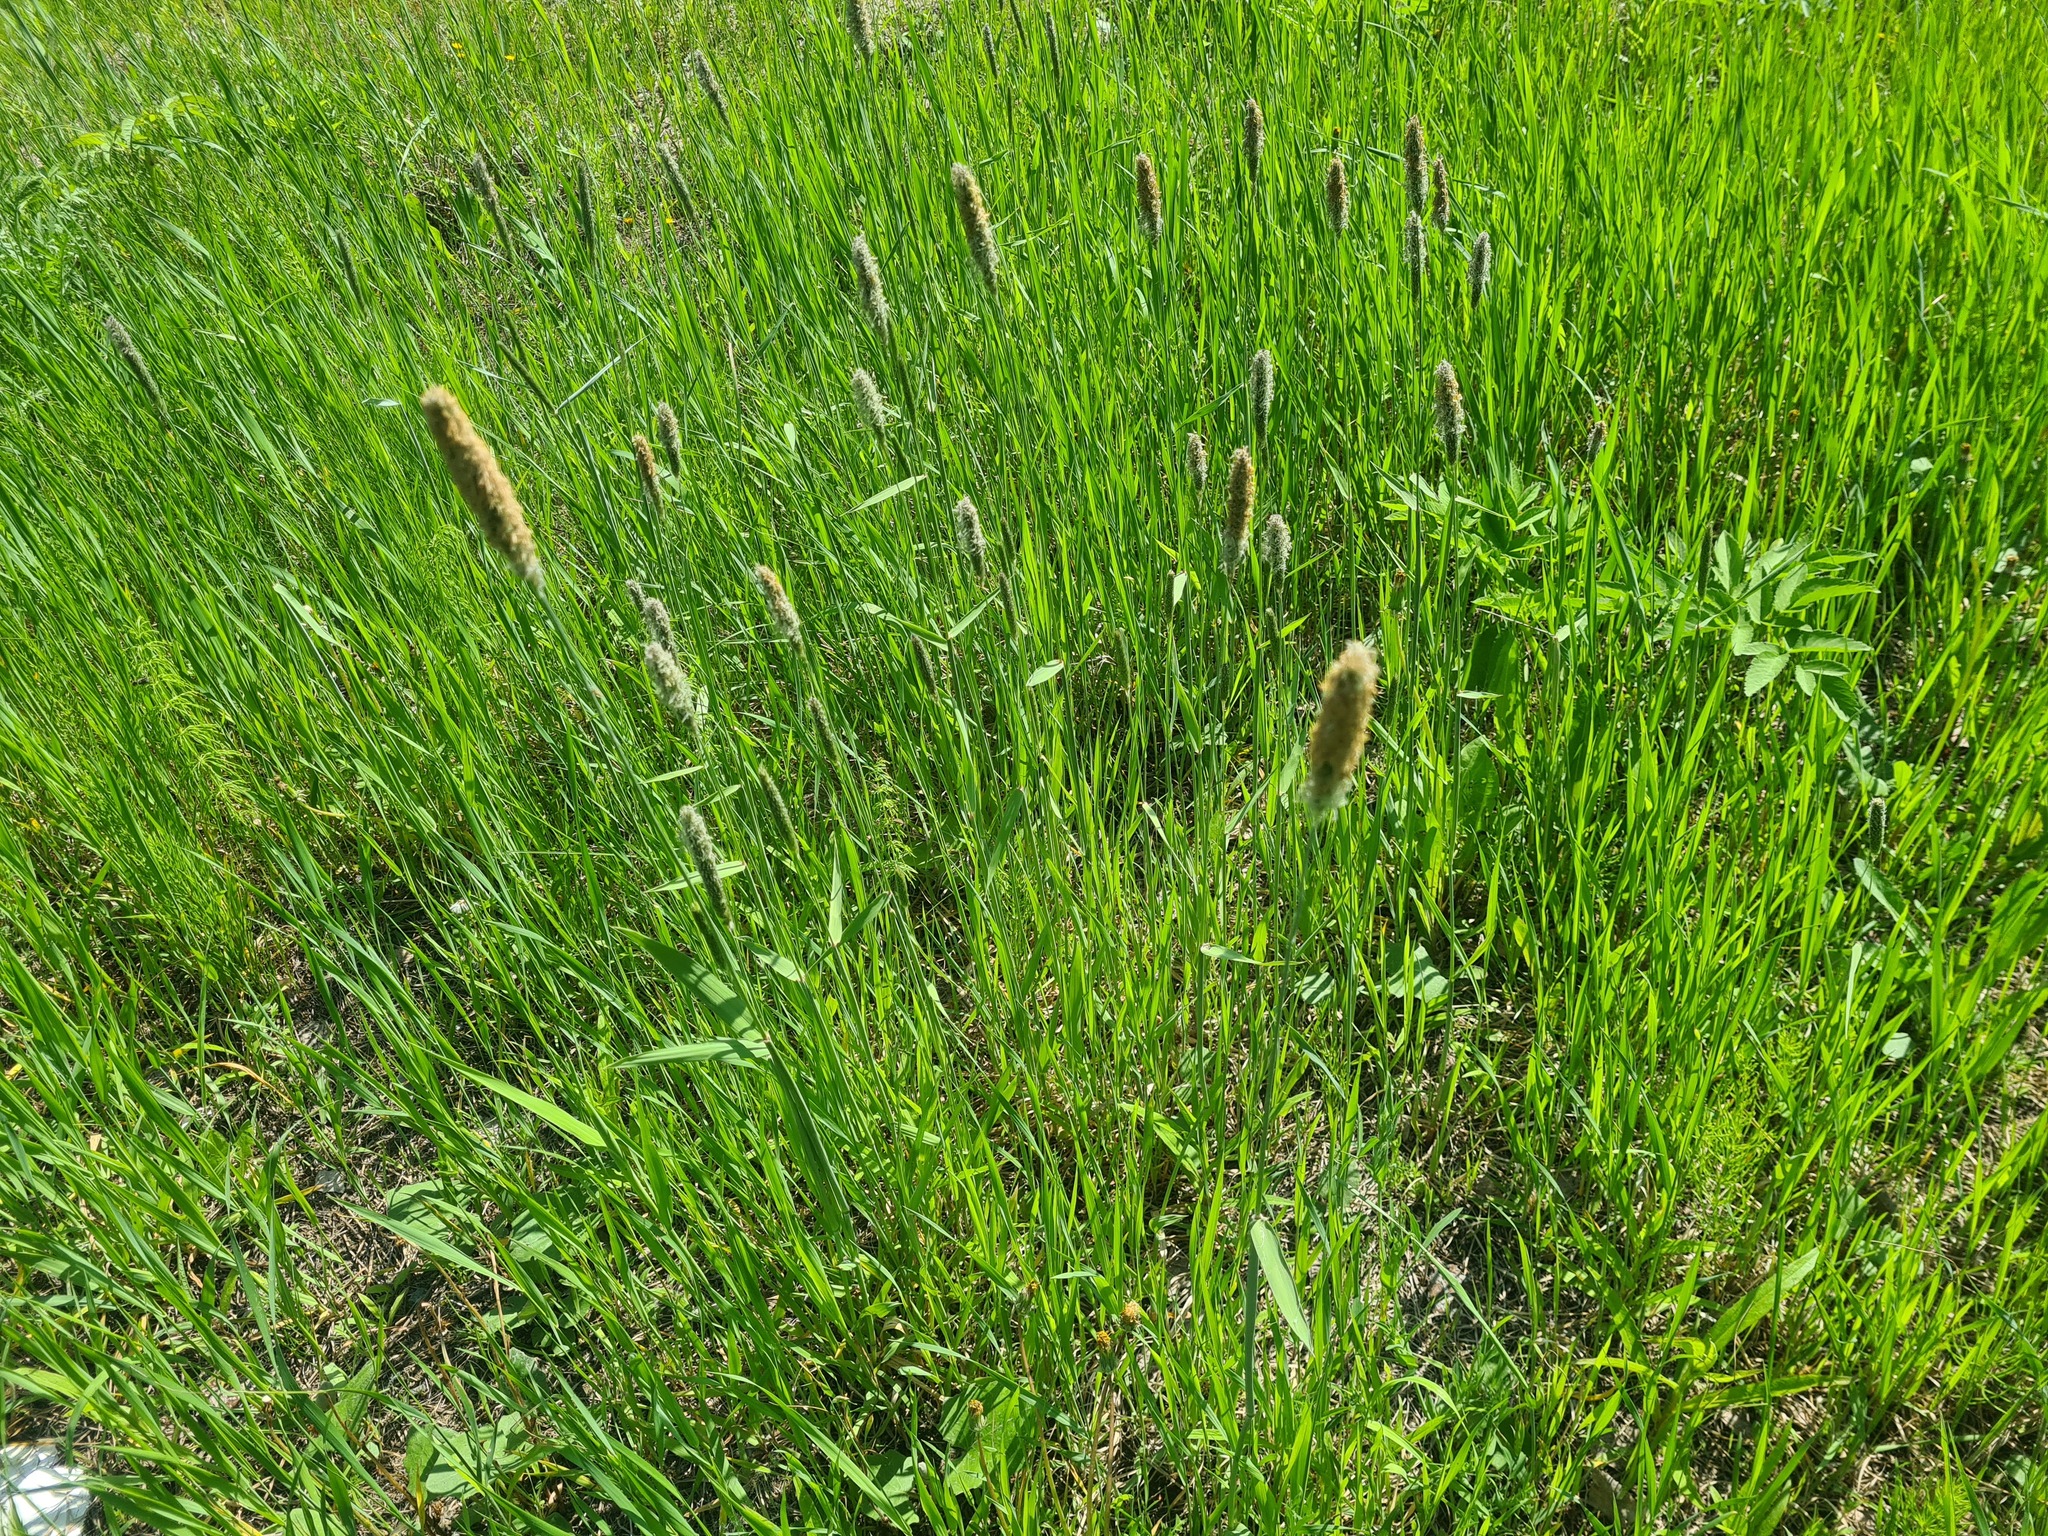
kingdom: Plantae
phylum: Tracheophyta
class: Liliopsida
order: Poales
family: Poaceae
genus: Alopecurus
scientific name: Alopecurus pratensis
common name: Meadow foxtail
